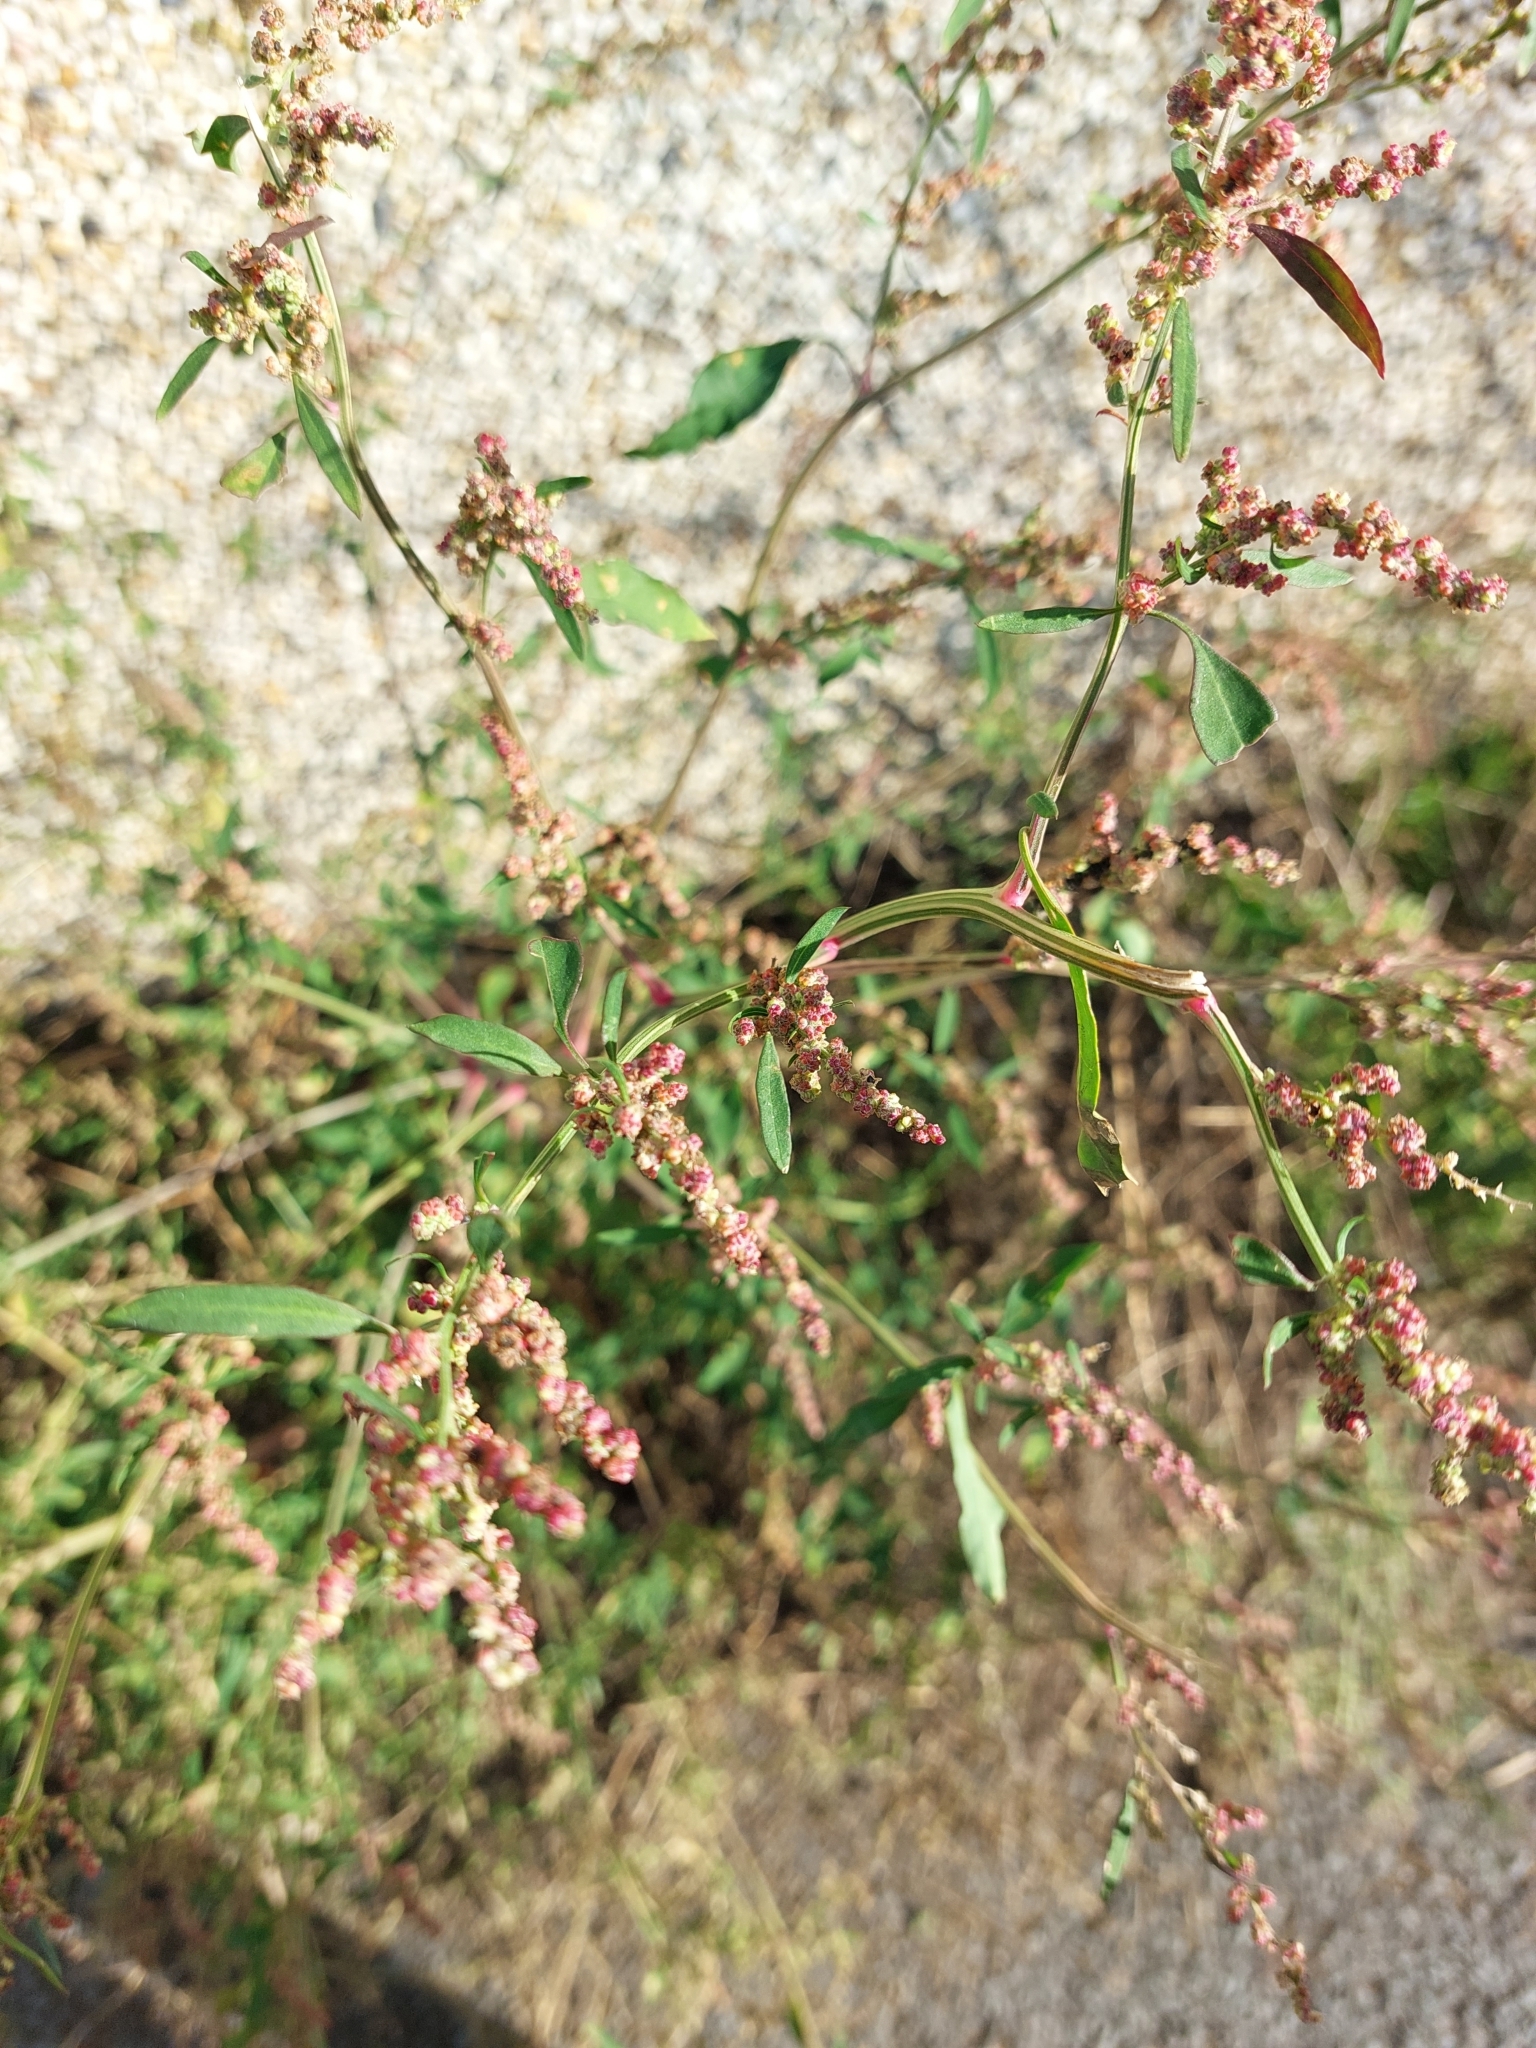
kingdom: Plantae
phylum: Tracheophyta
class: Magnoliopsida
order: Caryophyllales
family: Amaranthaceae
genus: Atriplex
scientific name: Atriplex patula
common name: Common orache
